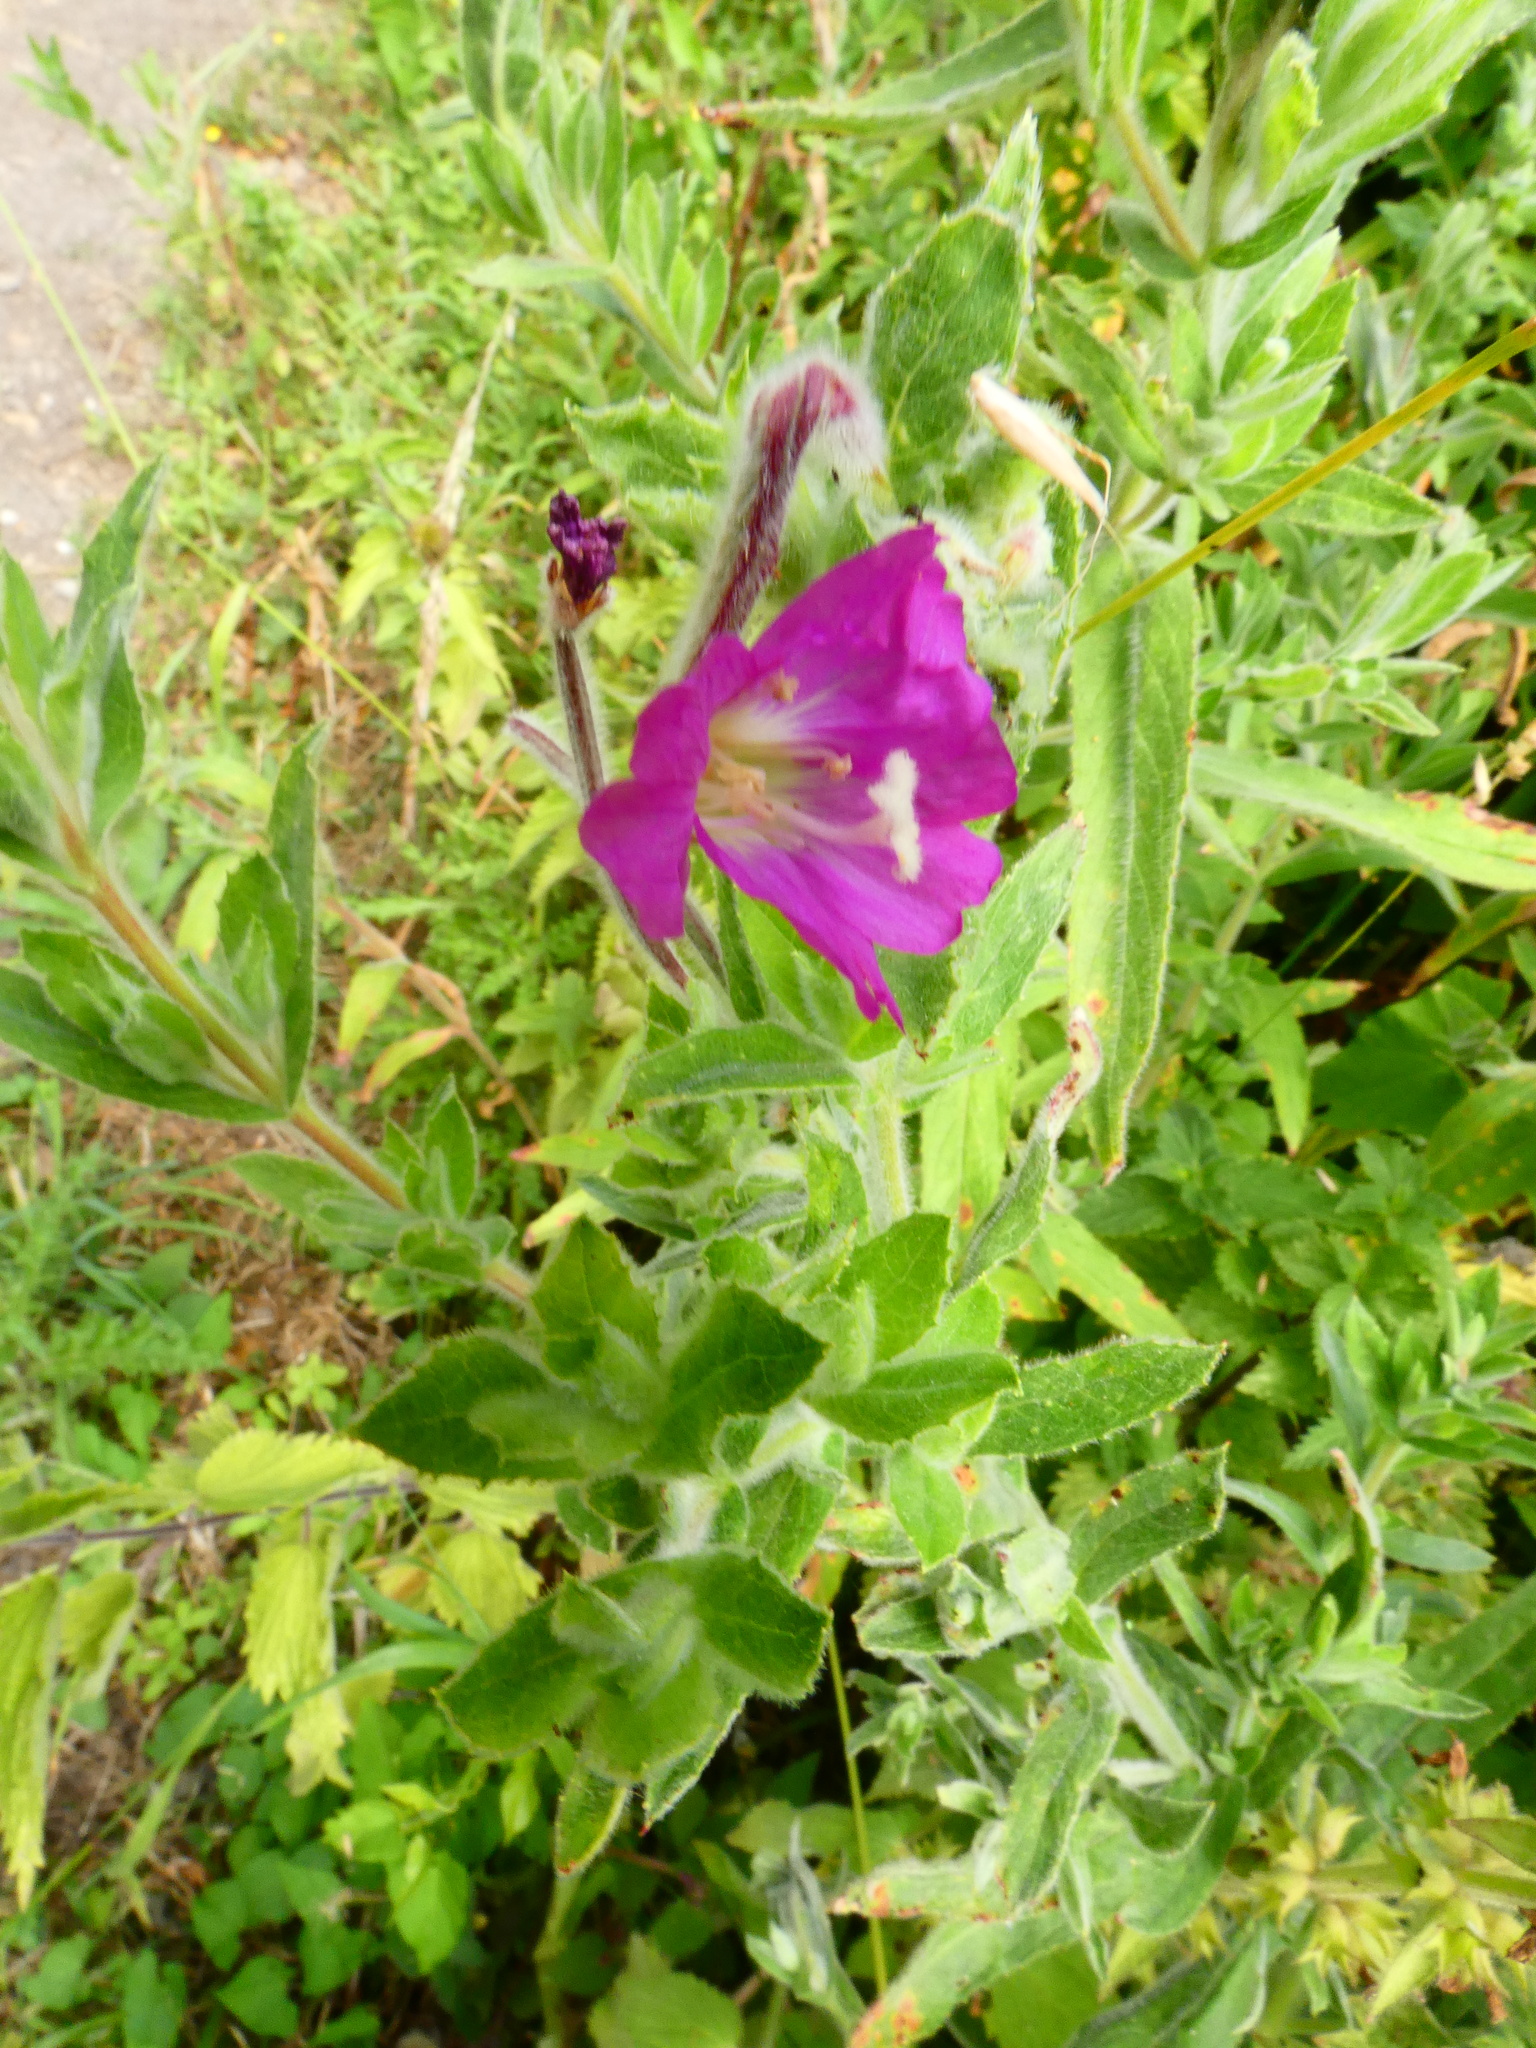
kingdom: Plantae
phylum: Tracheophyta
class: Magnoliopsida
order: Myrtales
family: Onagraceae
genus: Epilobium
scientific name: Epilobium hirsutum
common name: Great willowherb
